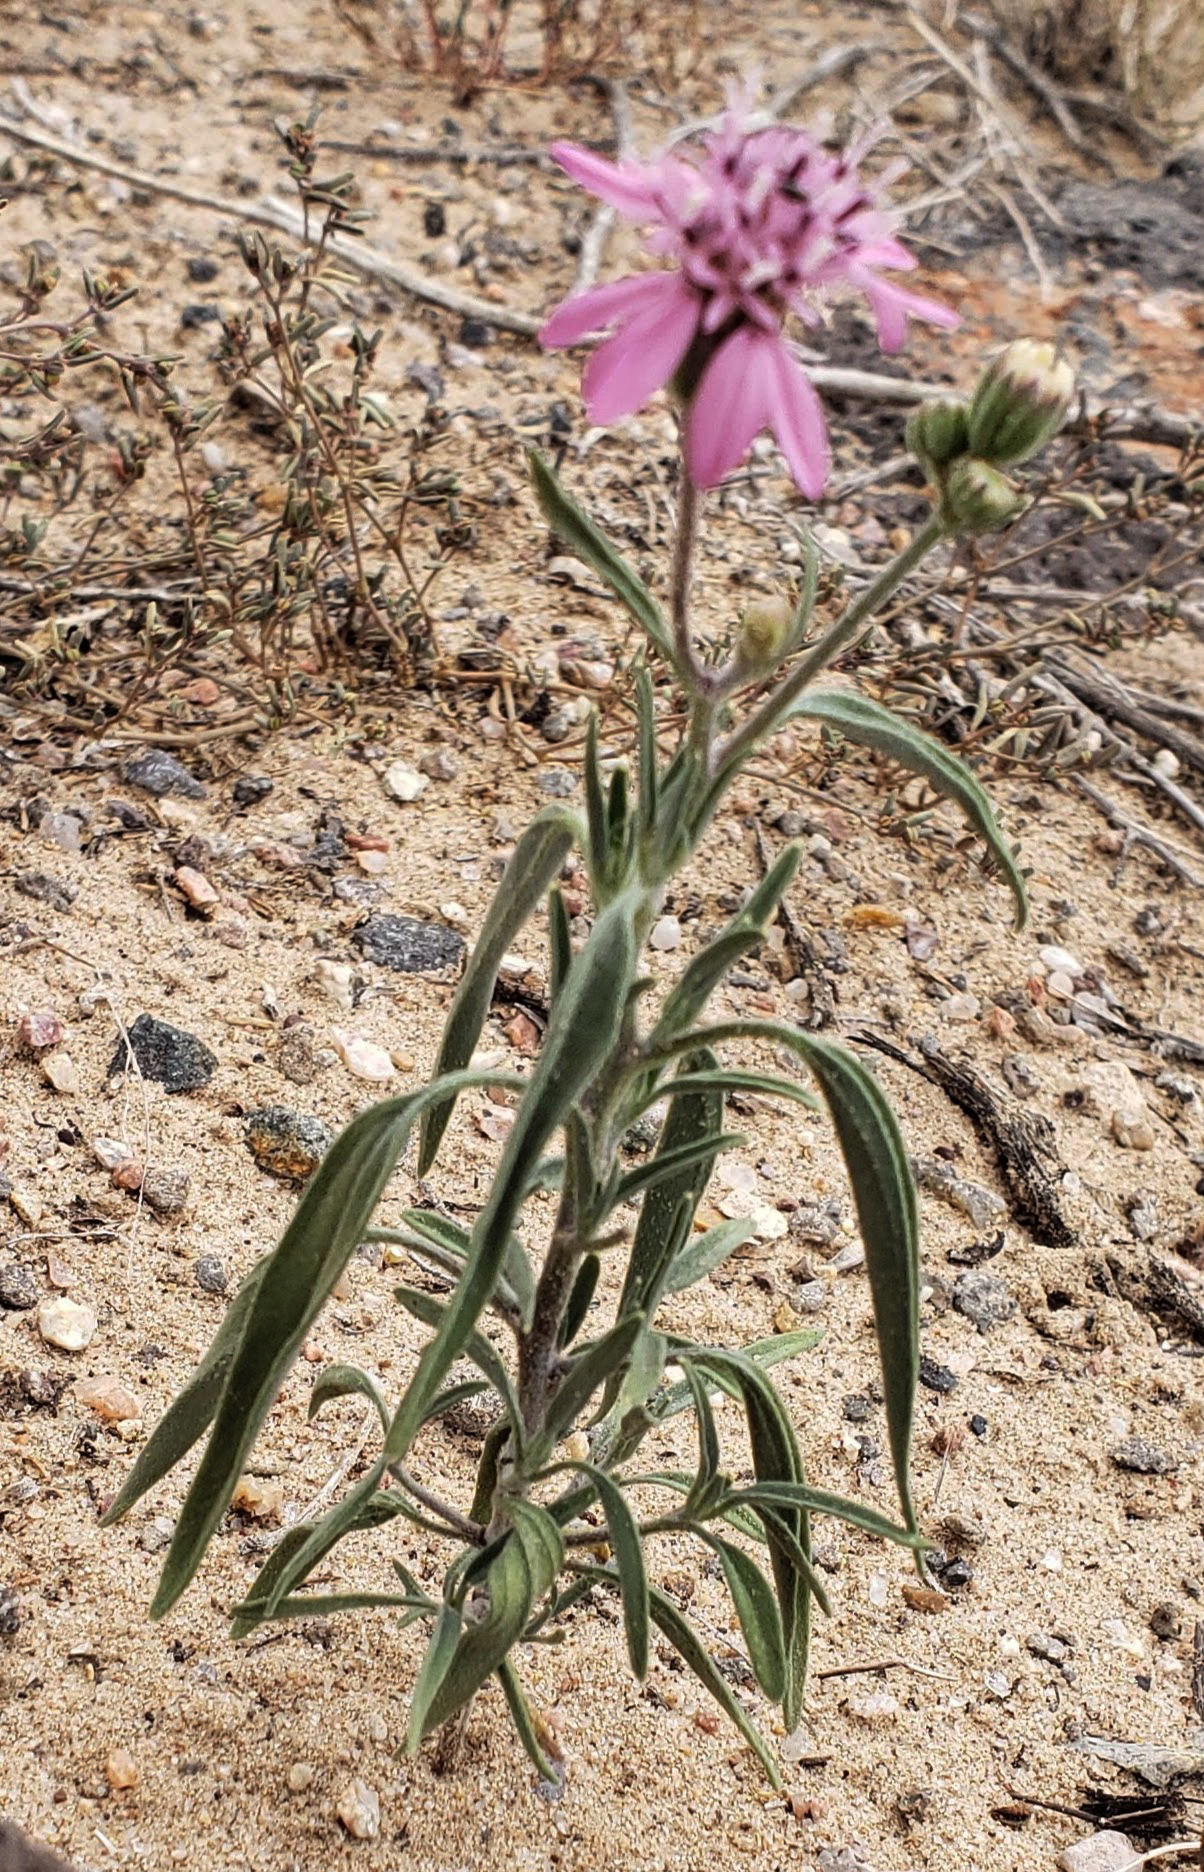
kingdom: Plantae
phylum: Tracheophyta
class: Magnoliopsida
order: Asterales
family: Asteraceae
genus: Palafoxia
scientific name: Palafoxia sphacelata
